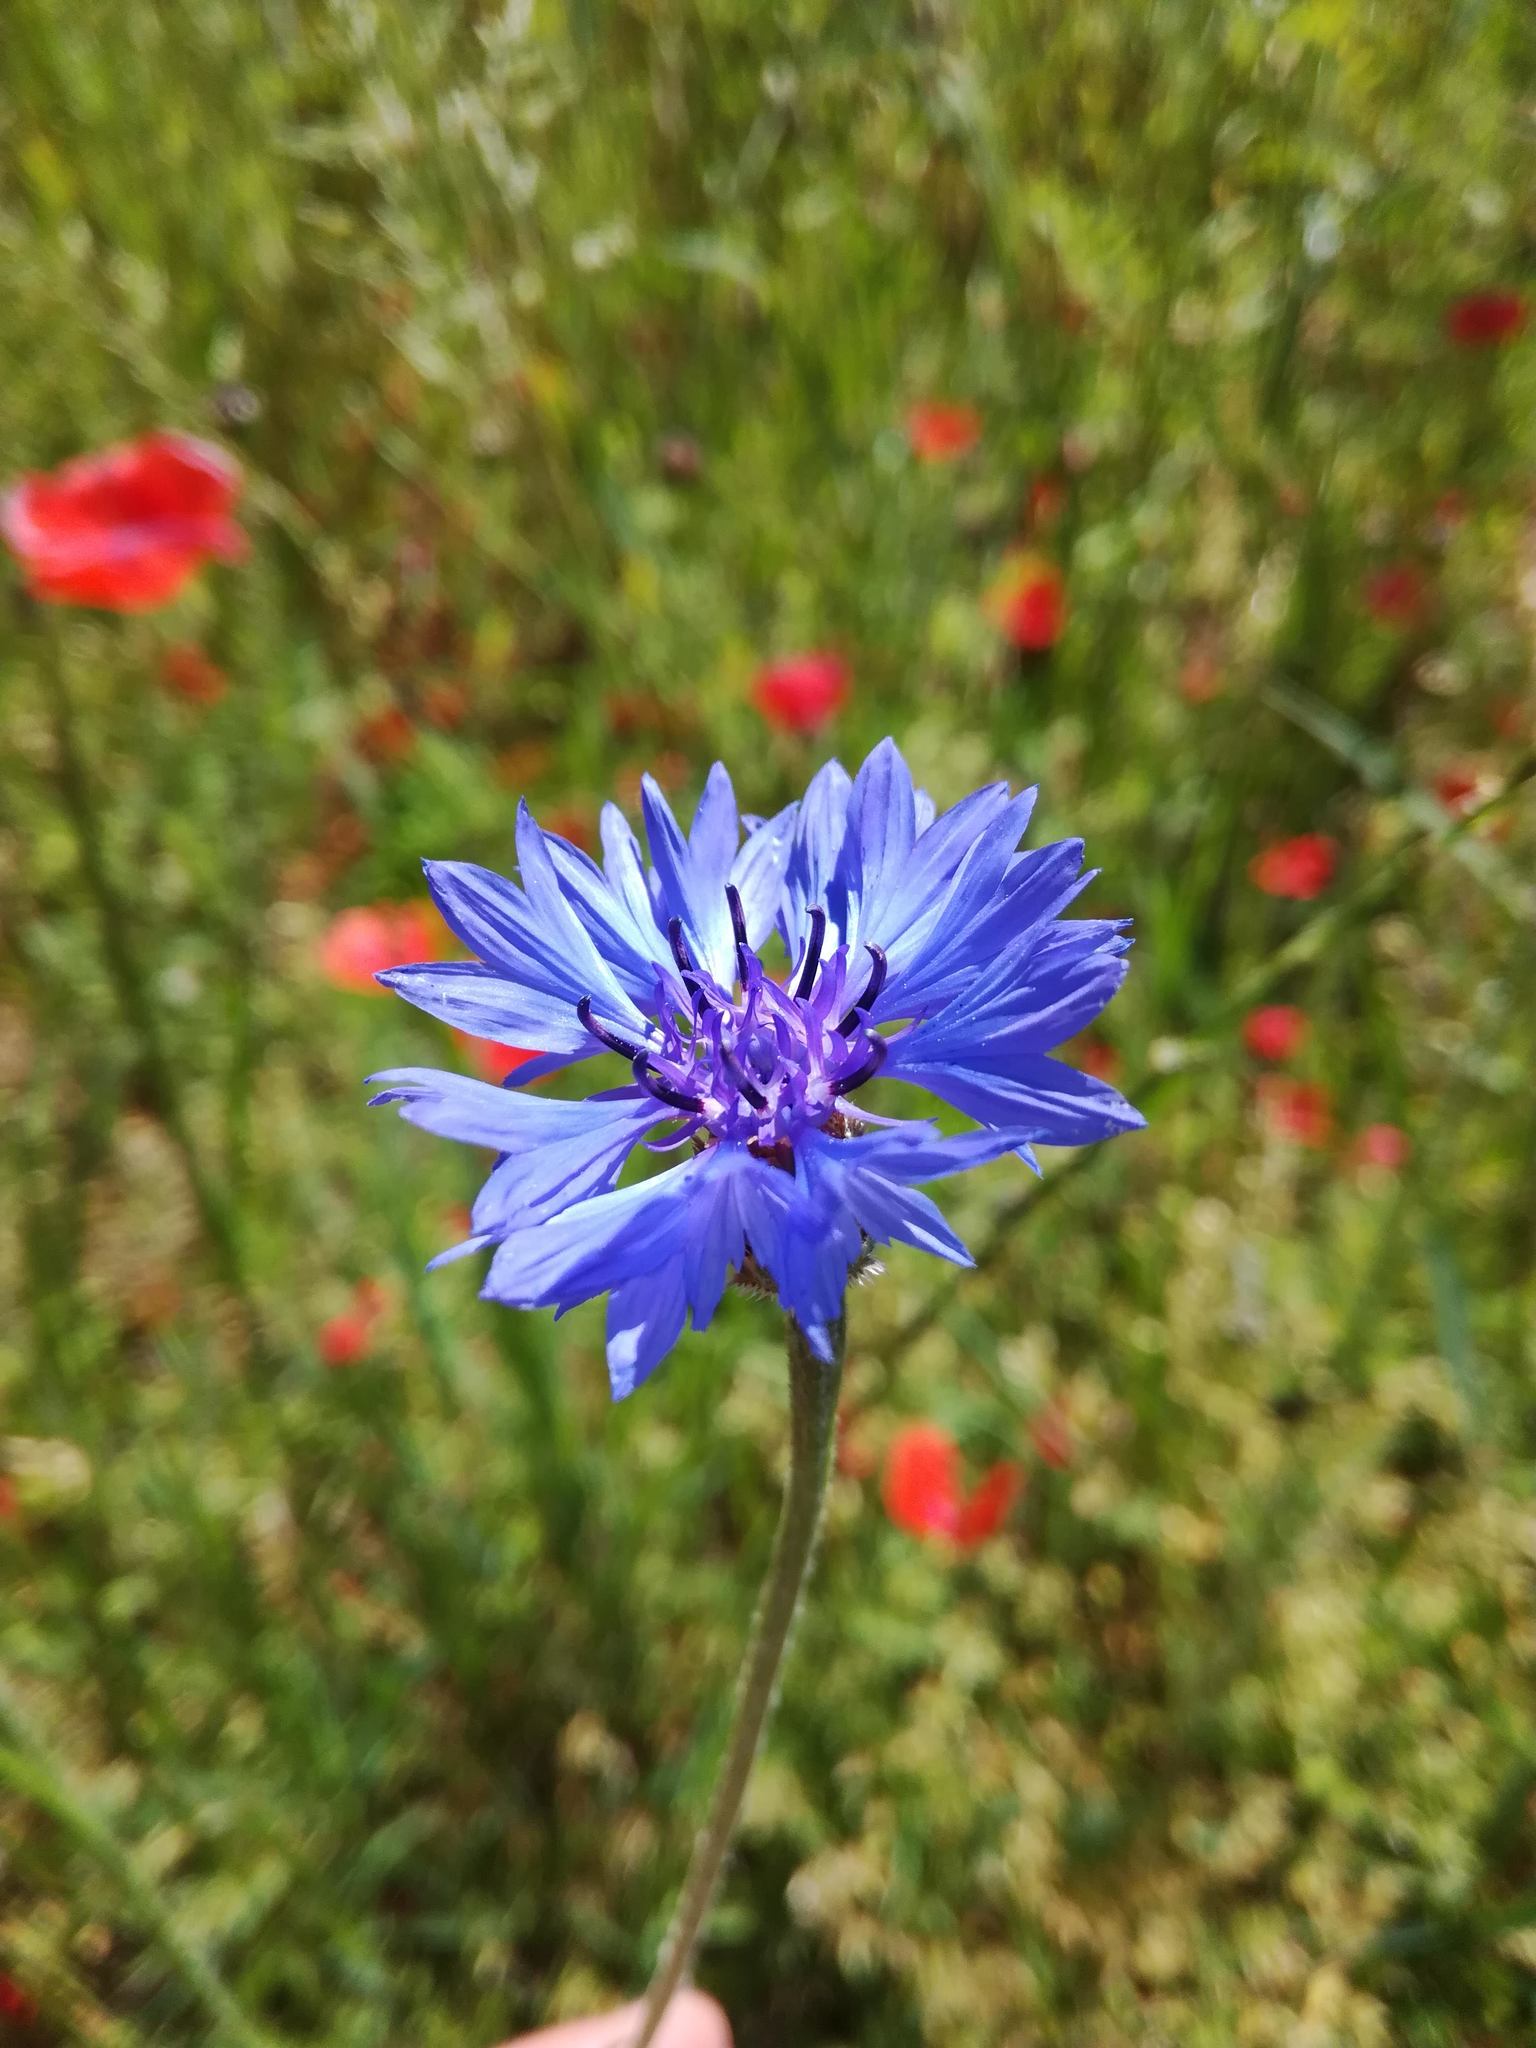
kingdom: Plantae
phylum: Tracheophyta
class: Magnoliopsida
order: Asterales
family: Asteraceae
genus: Centaurea
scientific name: Centaurea cyanus
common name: Cornflower
